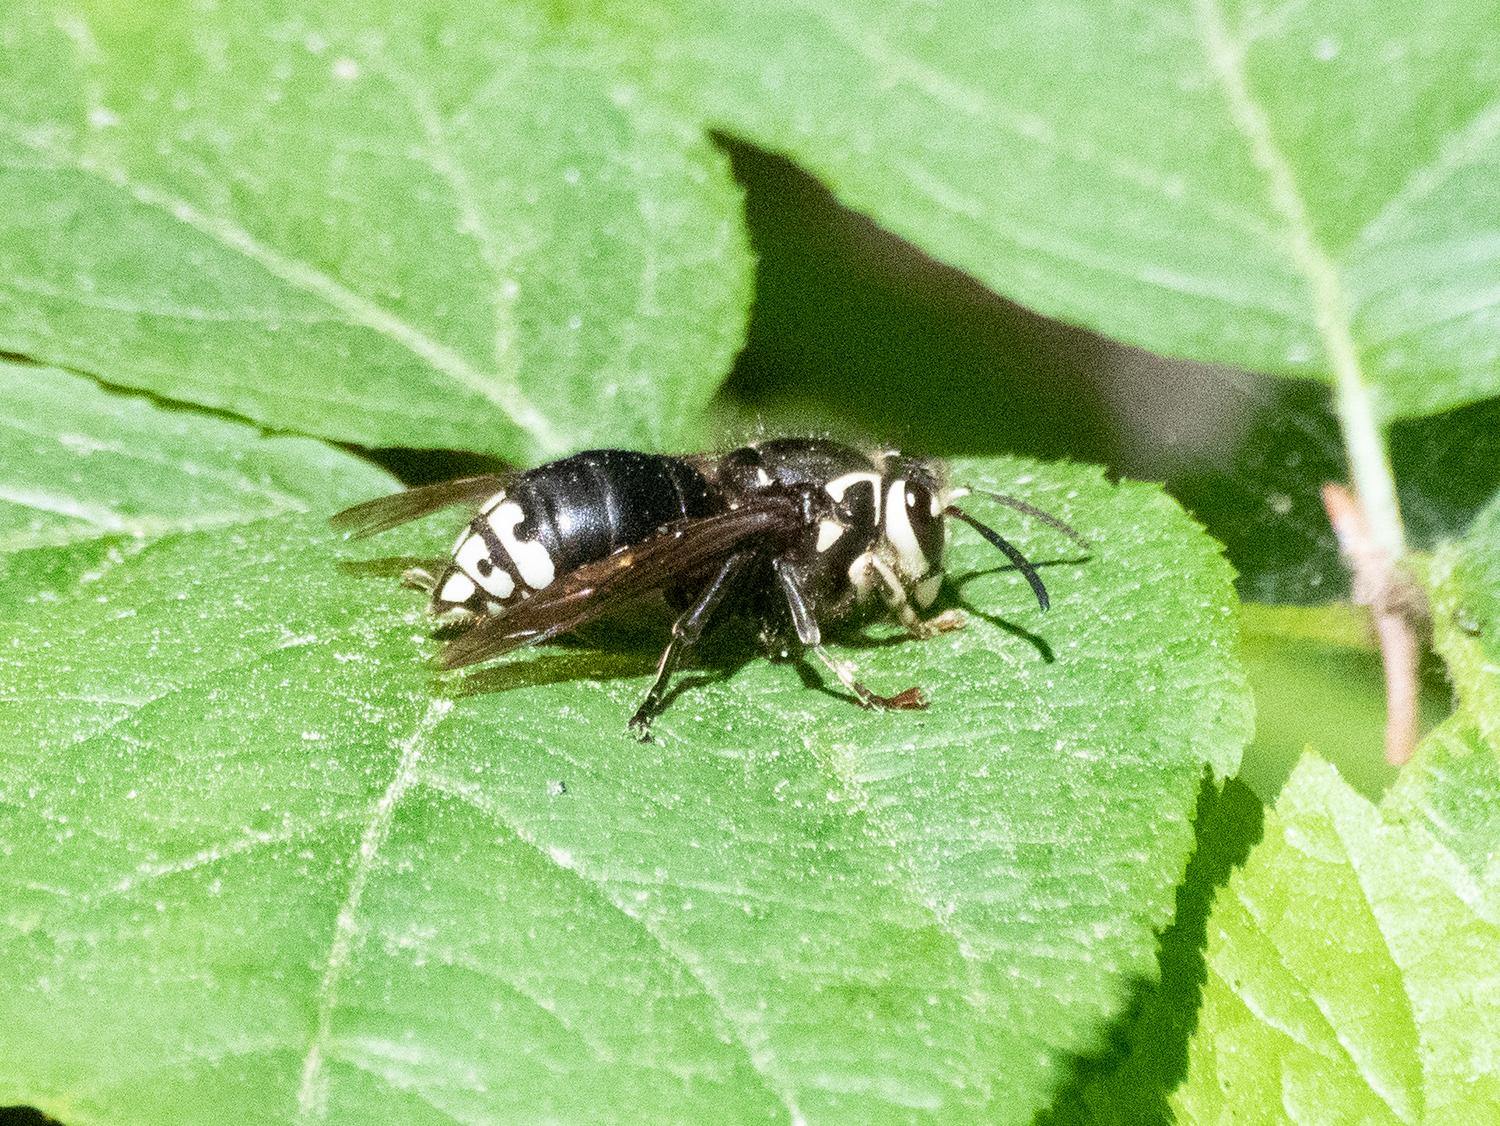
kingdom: Animalia
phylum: Arthropoda
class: Insecta
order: Hymenoptera
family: Vespidae
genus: Dolichovespula
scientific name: Dolichovespula maculata
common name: Bald-faced hornet
